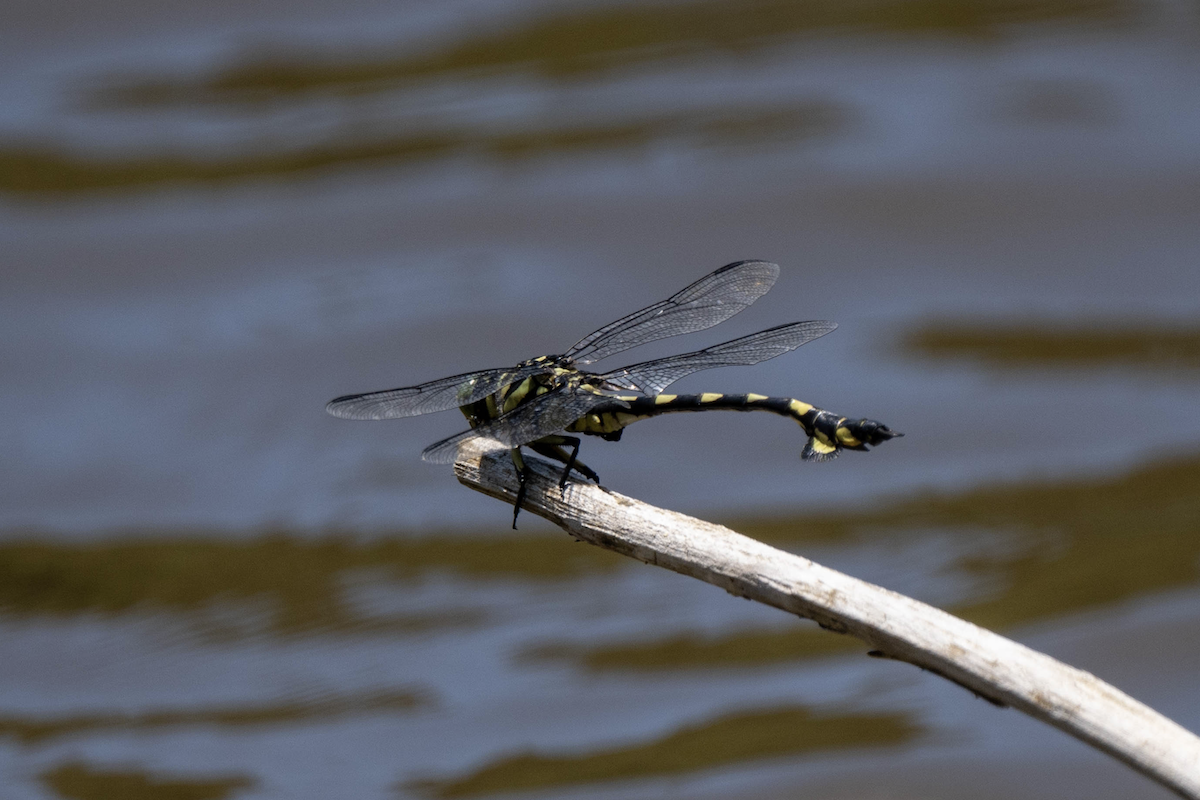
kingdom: Animalia
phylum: Arthropoda
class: Insecta
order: Odonata
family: Gomphidae
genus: Sinictinogomphus
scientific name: Sinictinogomphus clavatus
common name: Golden flangetail
